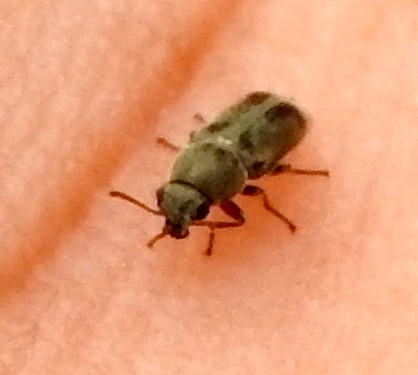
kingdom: Animalia
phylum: Arthropoda
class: Insecta
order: Coleoptera
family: Melyridae
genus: Listrus
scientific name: Listrus
